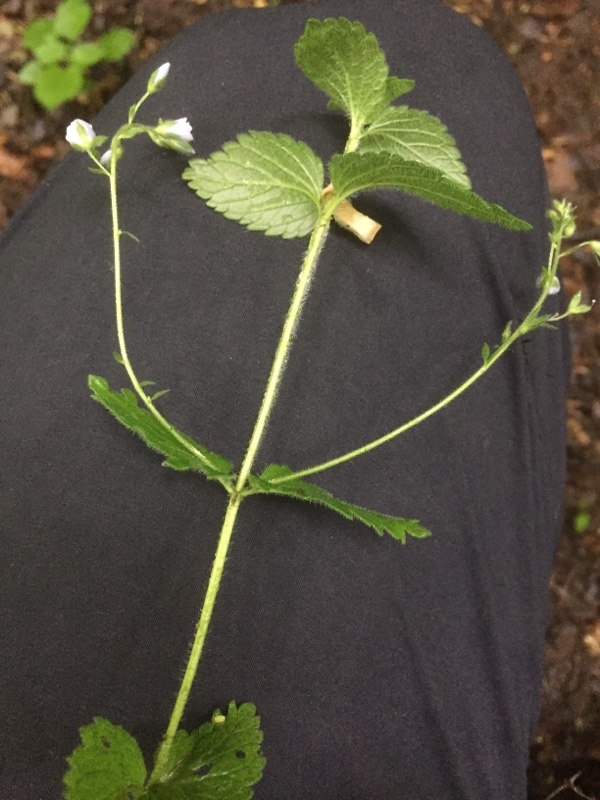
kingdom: Plantae
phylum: Tracheophyta
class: Magnoliopsida
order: Lamiales
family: Plantaginaceae
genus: Veronica
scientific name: Veronica montana
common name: Wood speedwell
